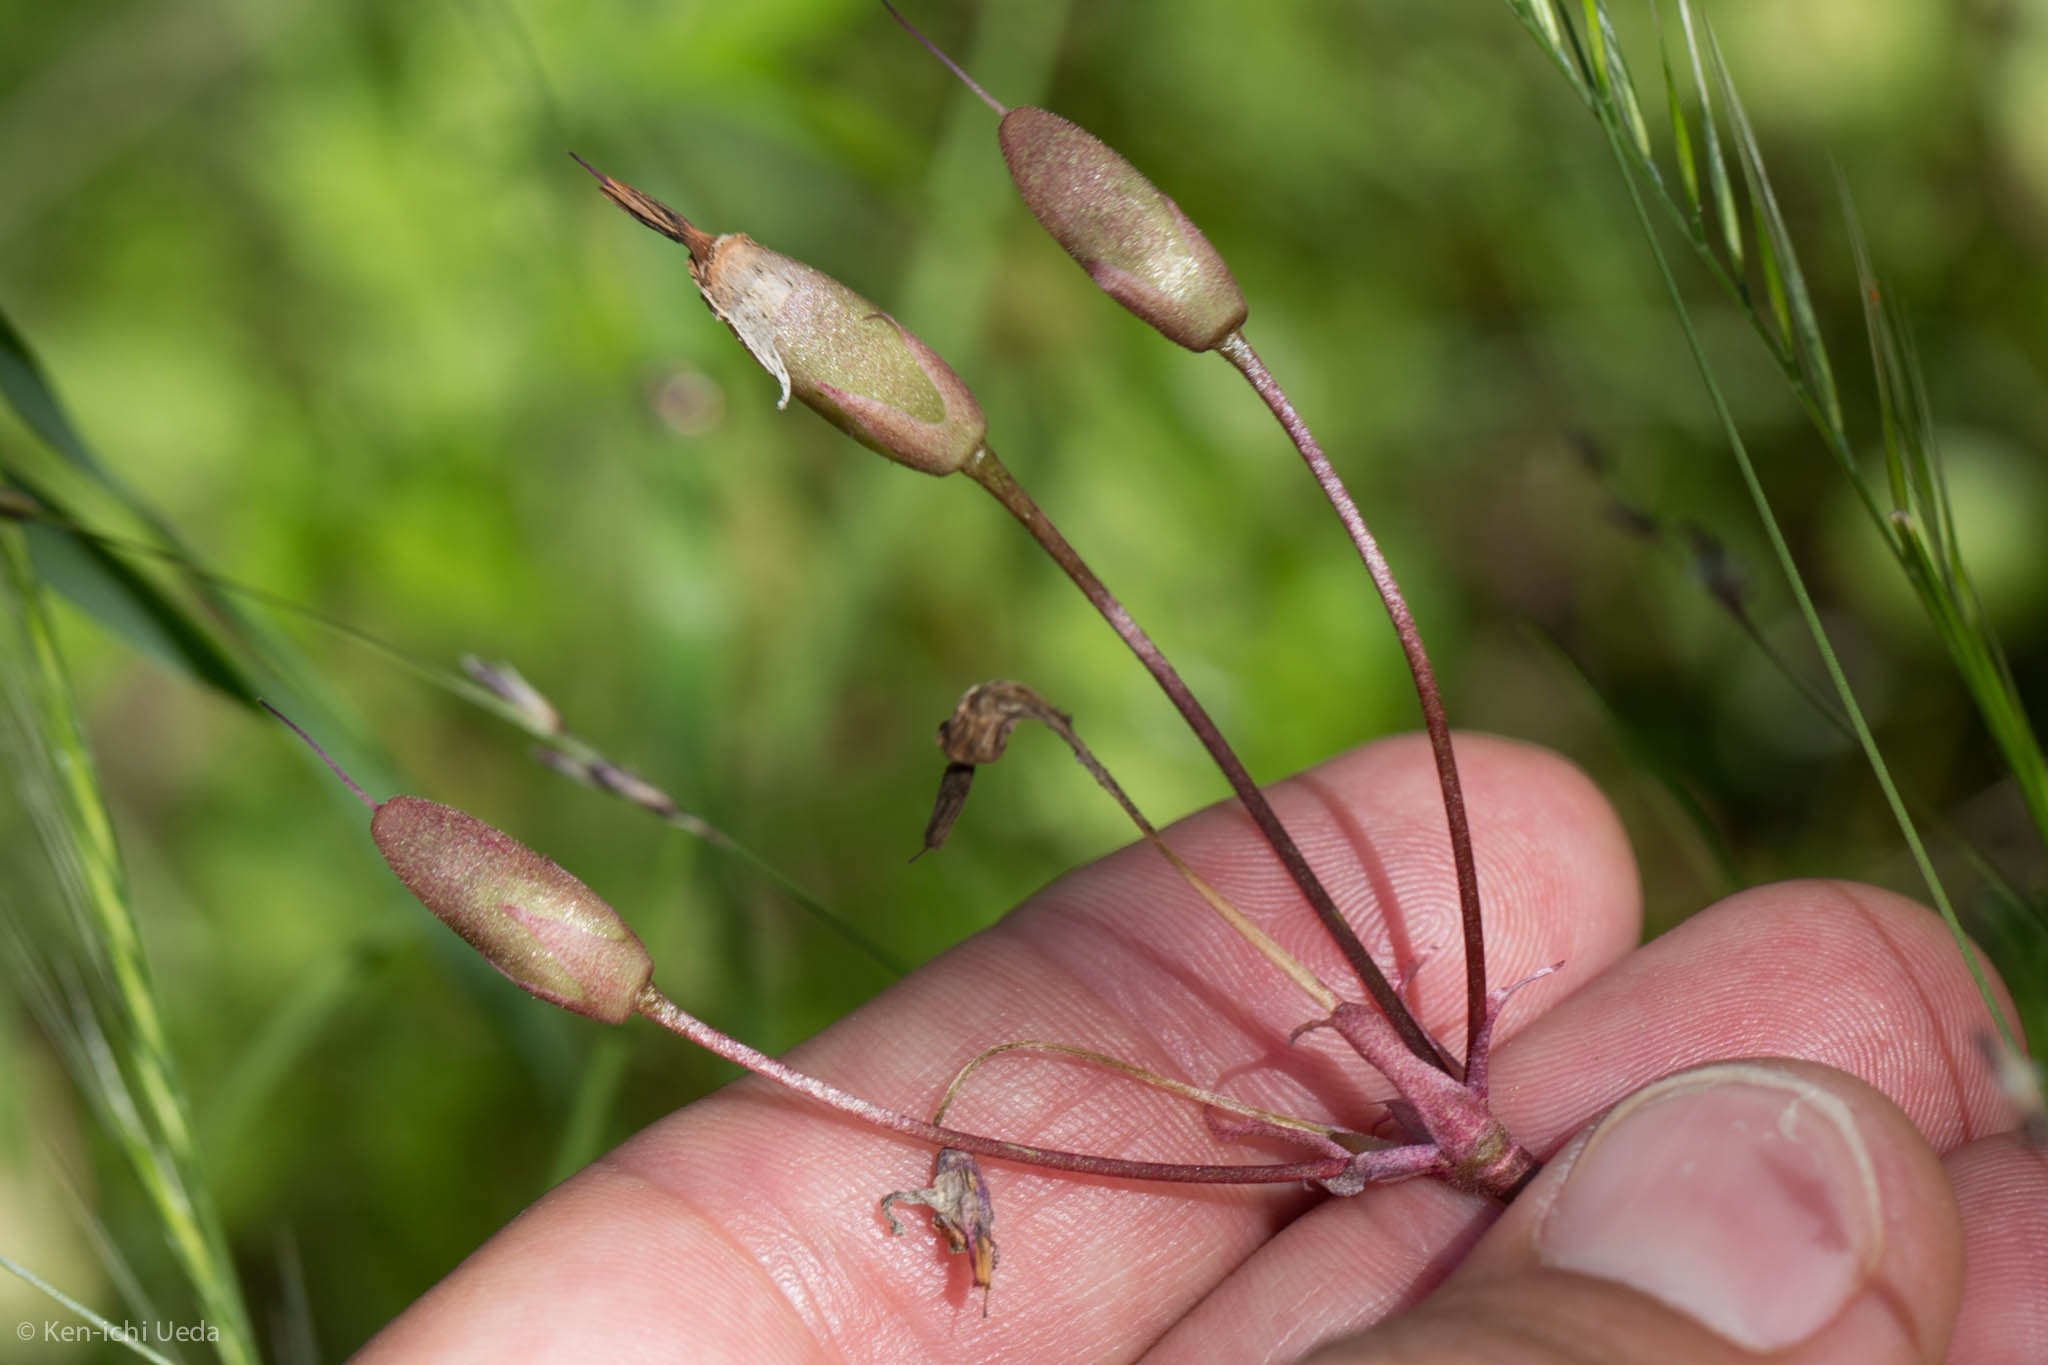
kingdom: Plantae
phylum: Tracheophyta
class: Magnoliopsida
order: Ericales
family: Primulaceae
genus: Dodecatheon
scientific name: Dodecatheon hendersonii
